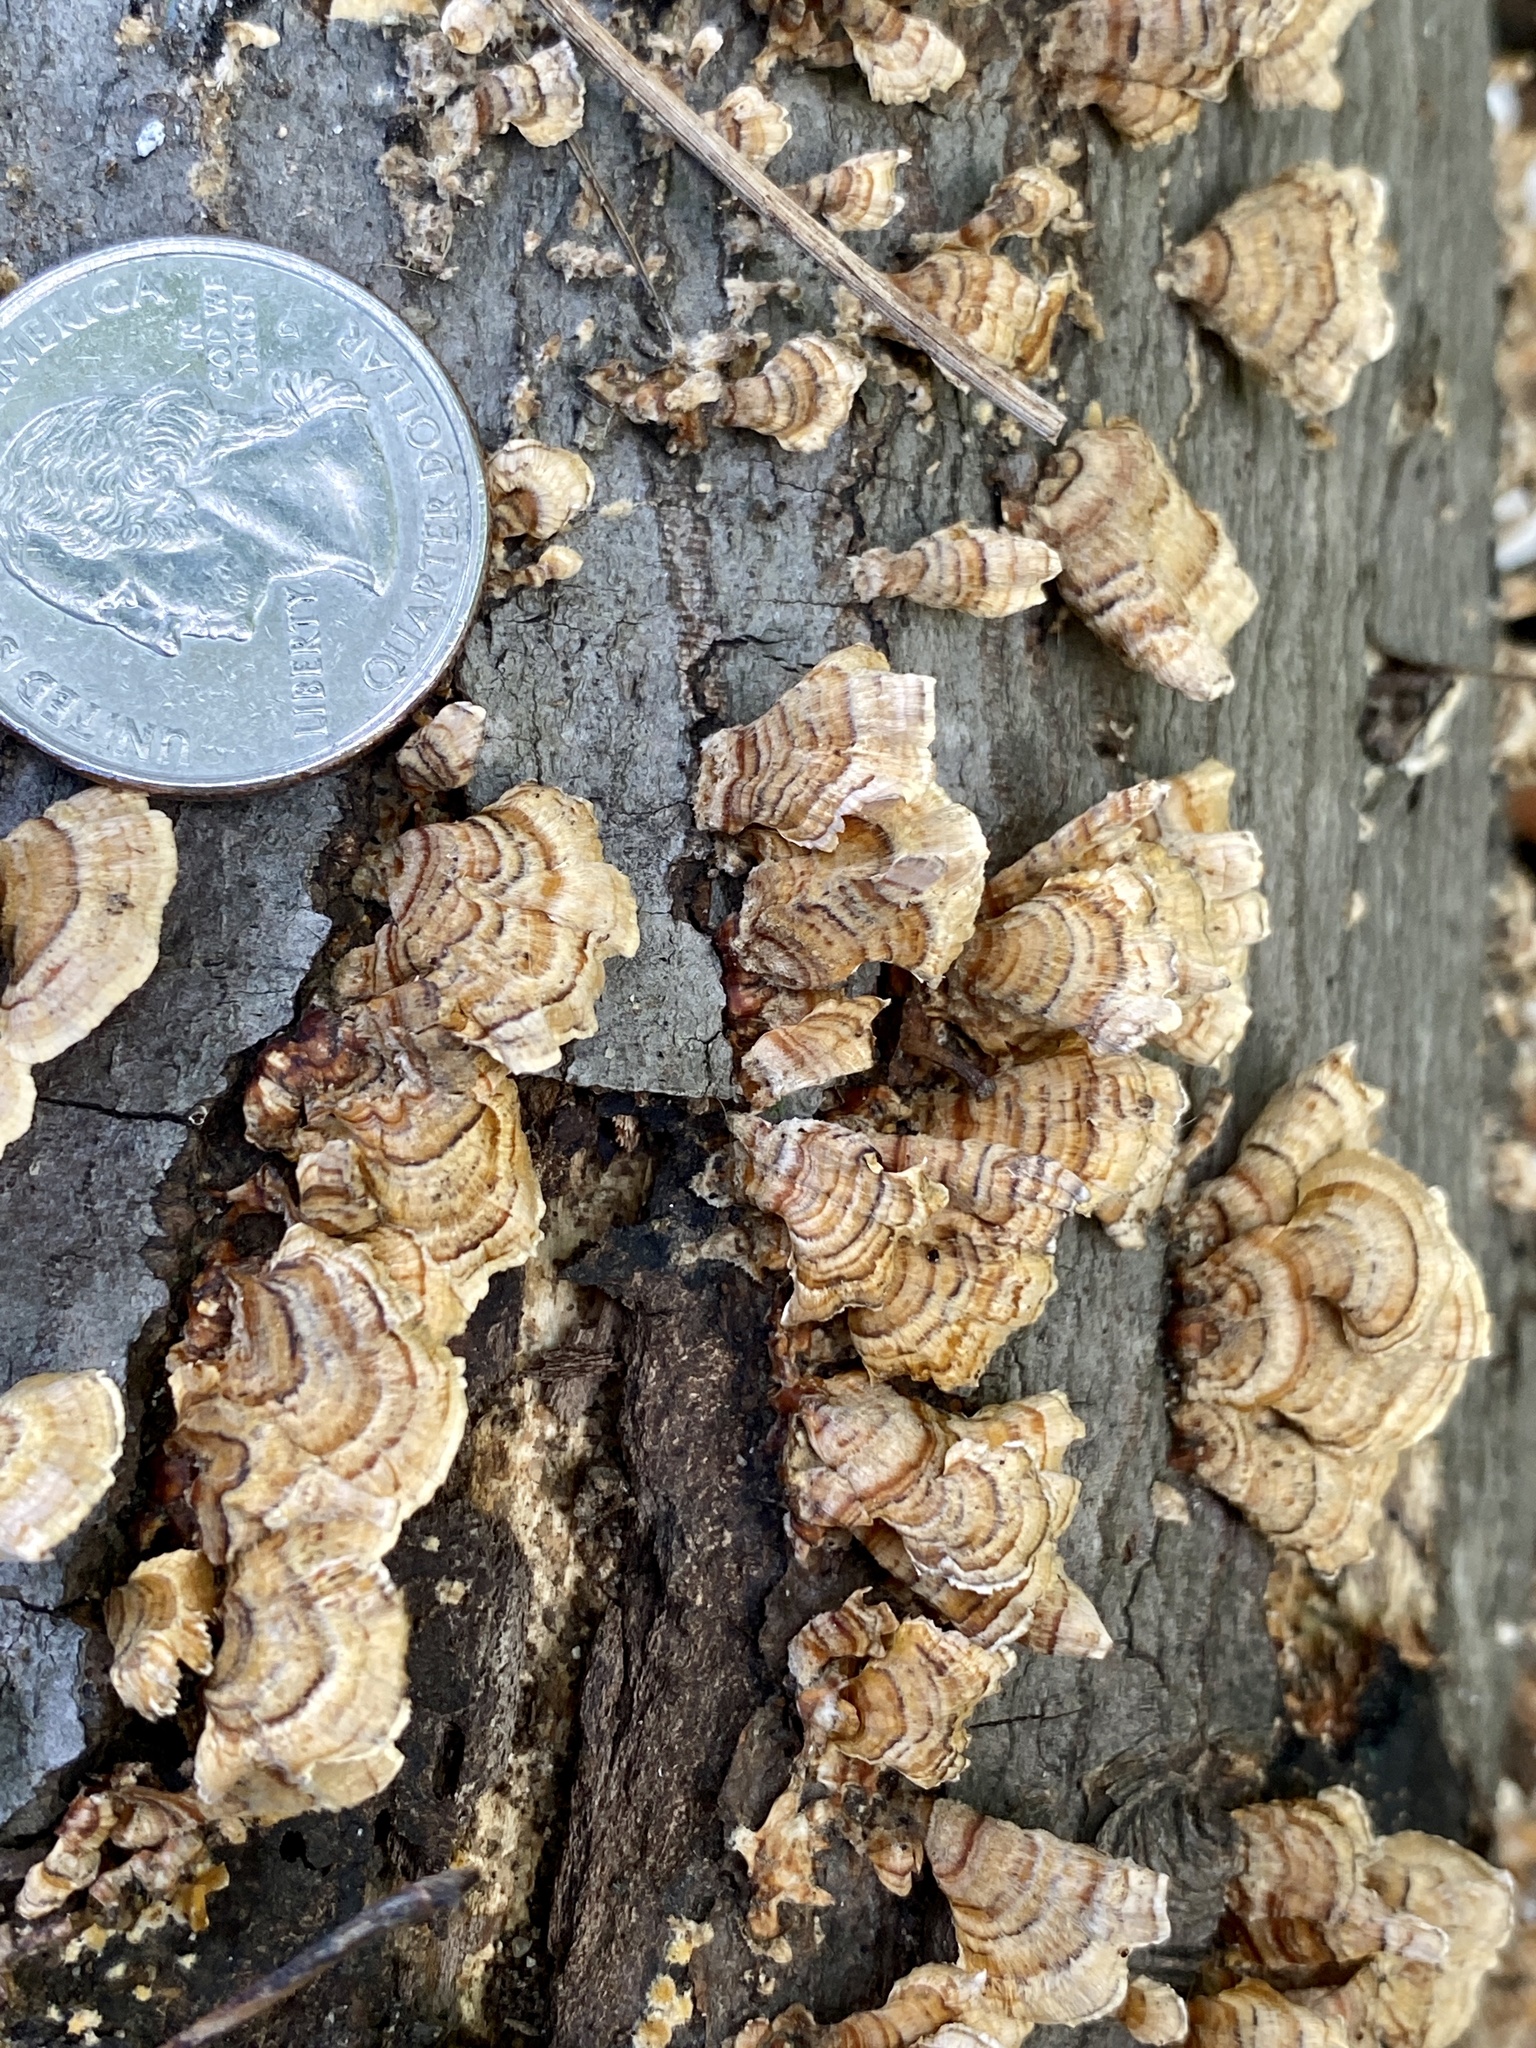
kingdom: Fungi
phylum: Basidiomycota
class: Agaricomycetes
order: Russulales
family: Stereaceae
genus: Stereum
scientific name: Stereum complicatum
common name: Crowded parchment
